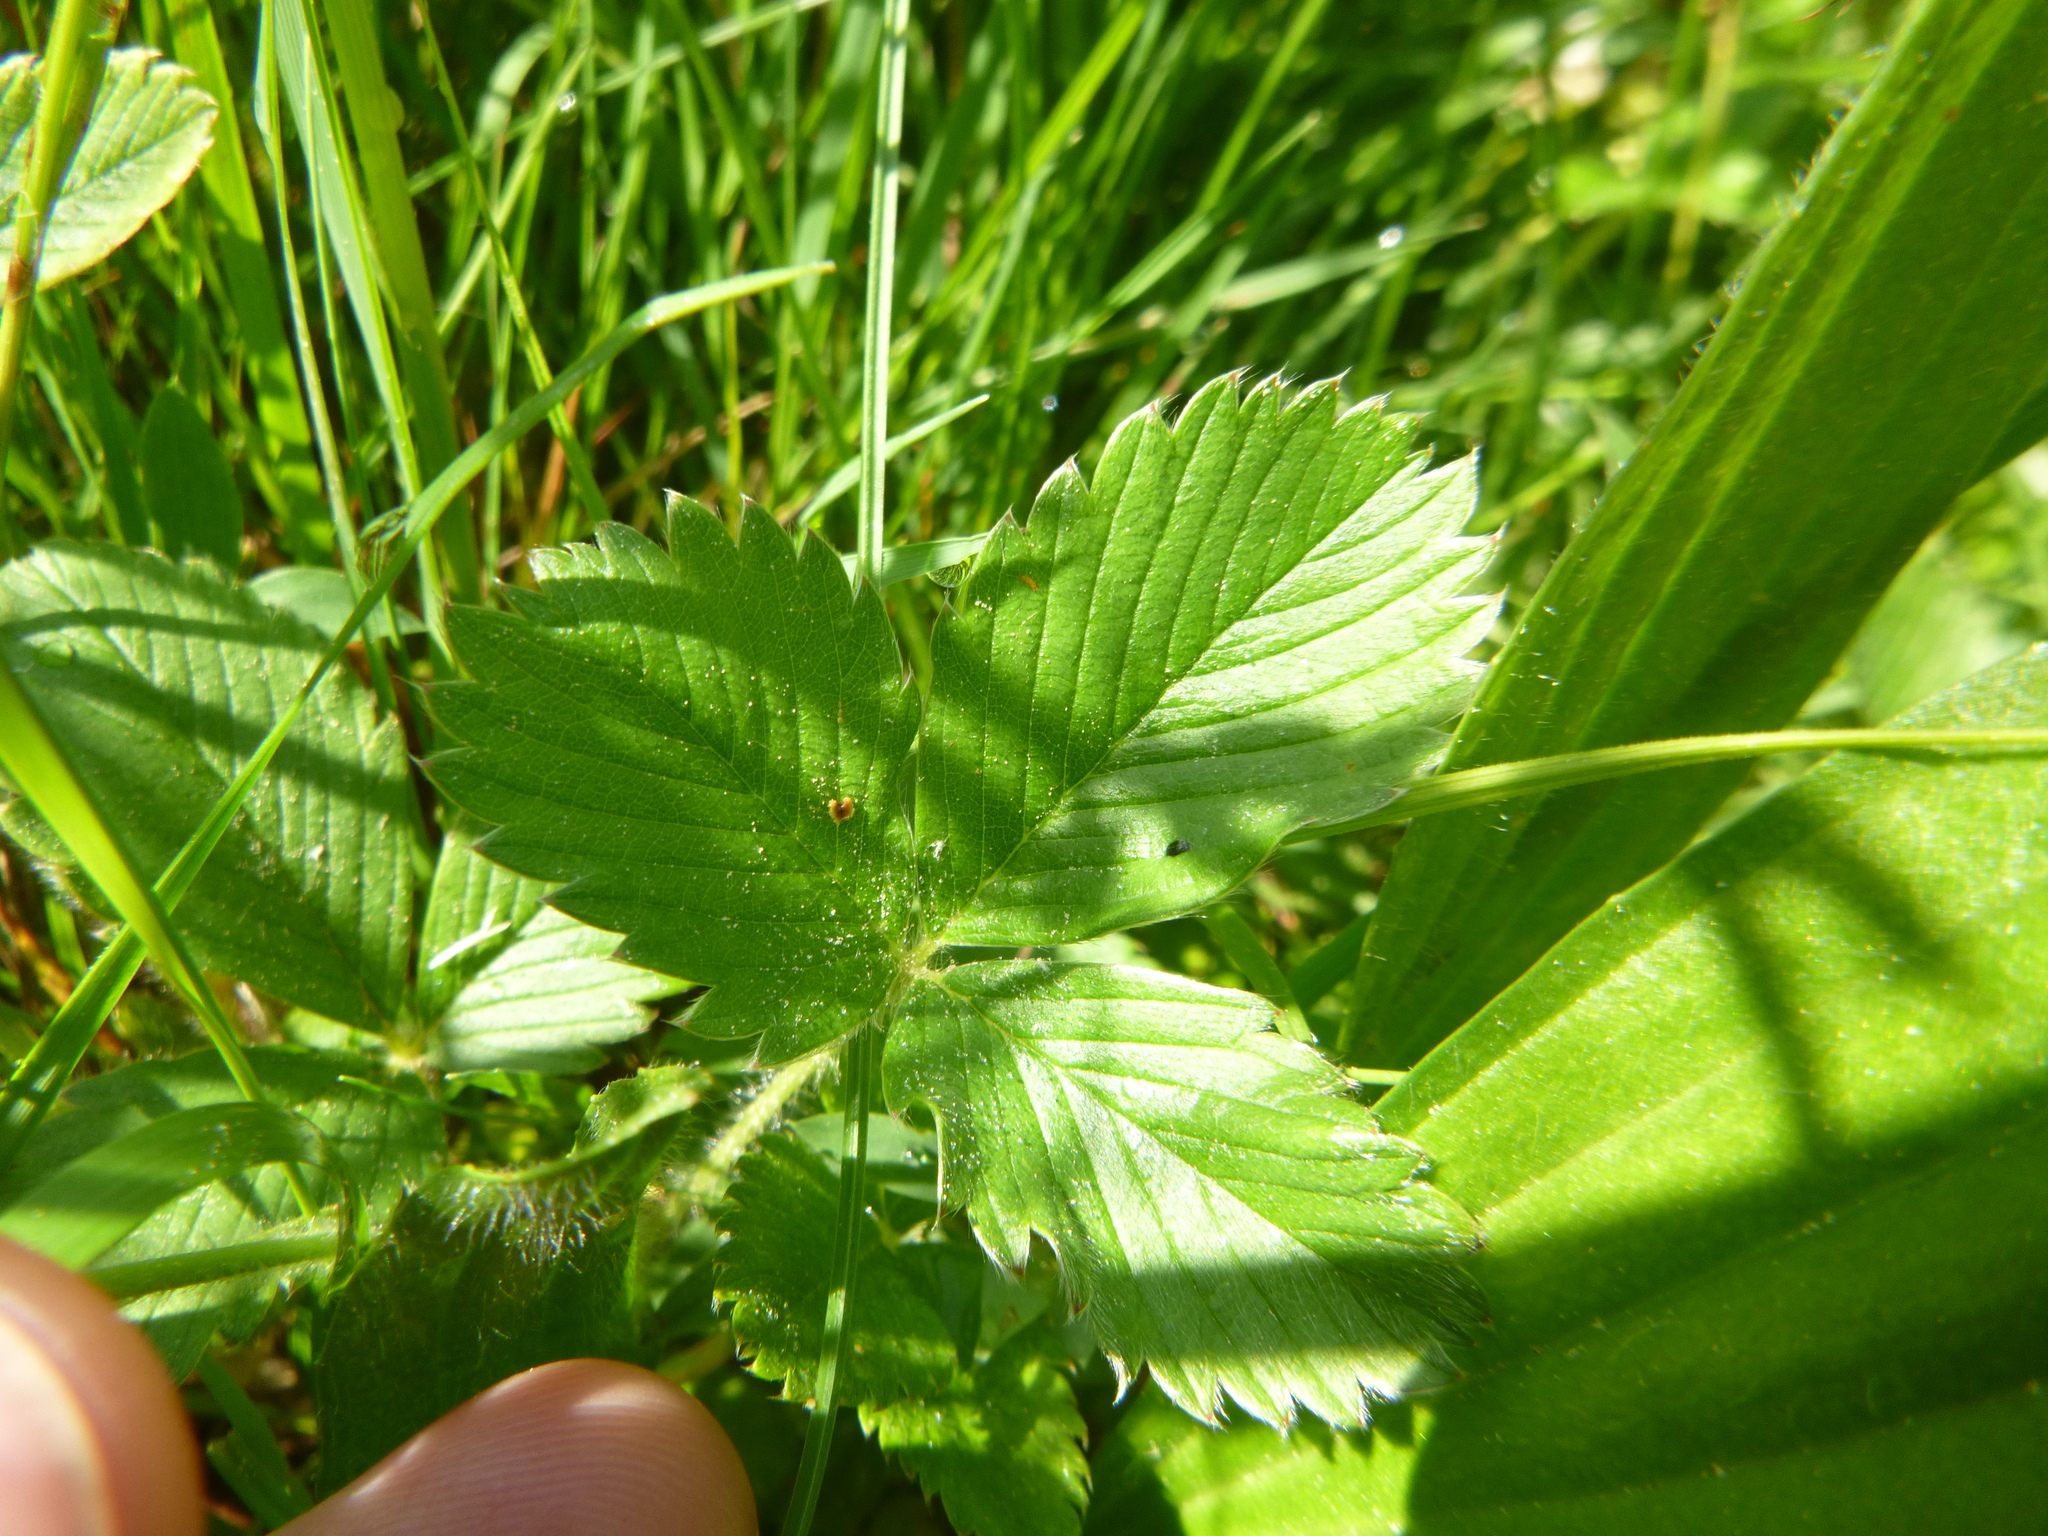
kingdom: Plantae
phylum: Tracheophyta
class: Magnoliopsida
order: Rosales
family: Rosaceae
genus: Fragaria
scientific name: Fragaria viridis
